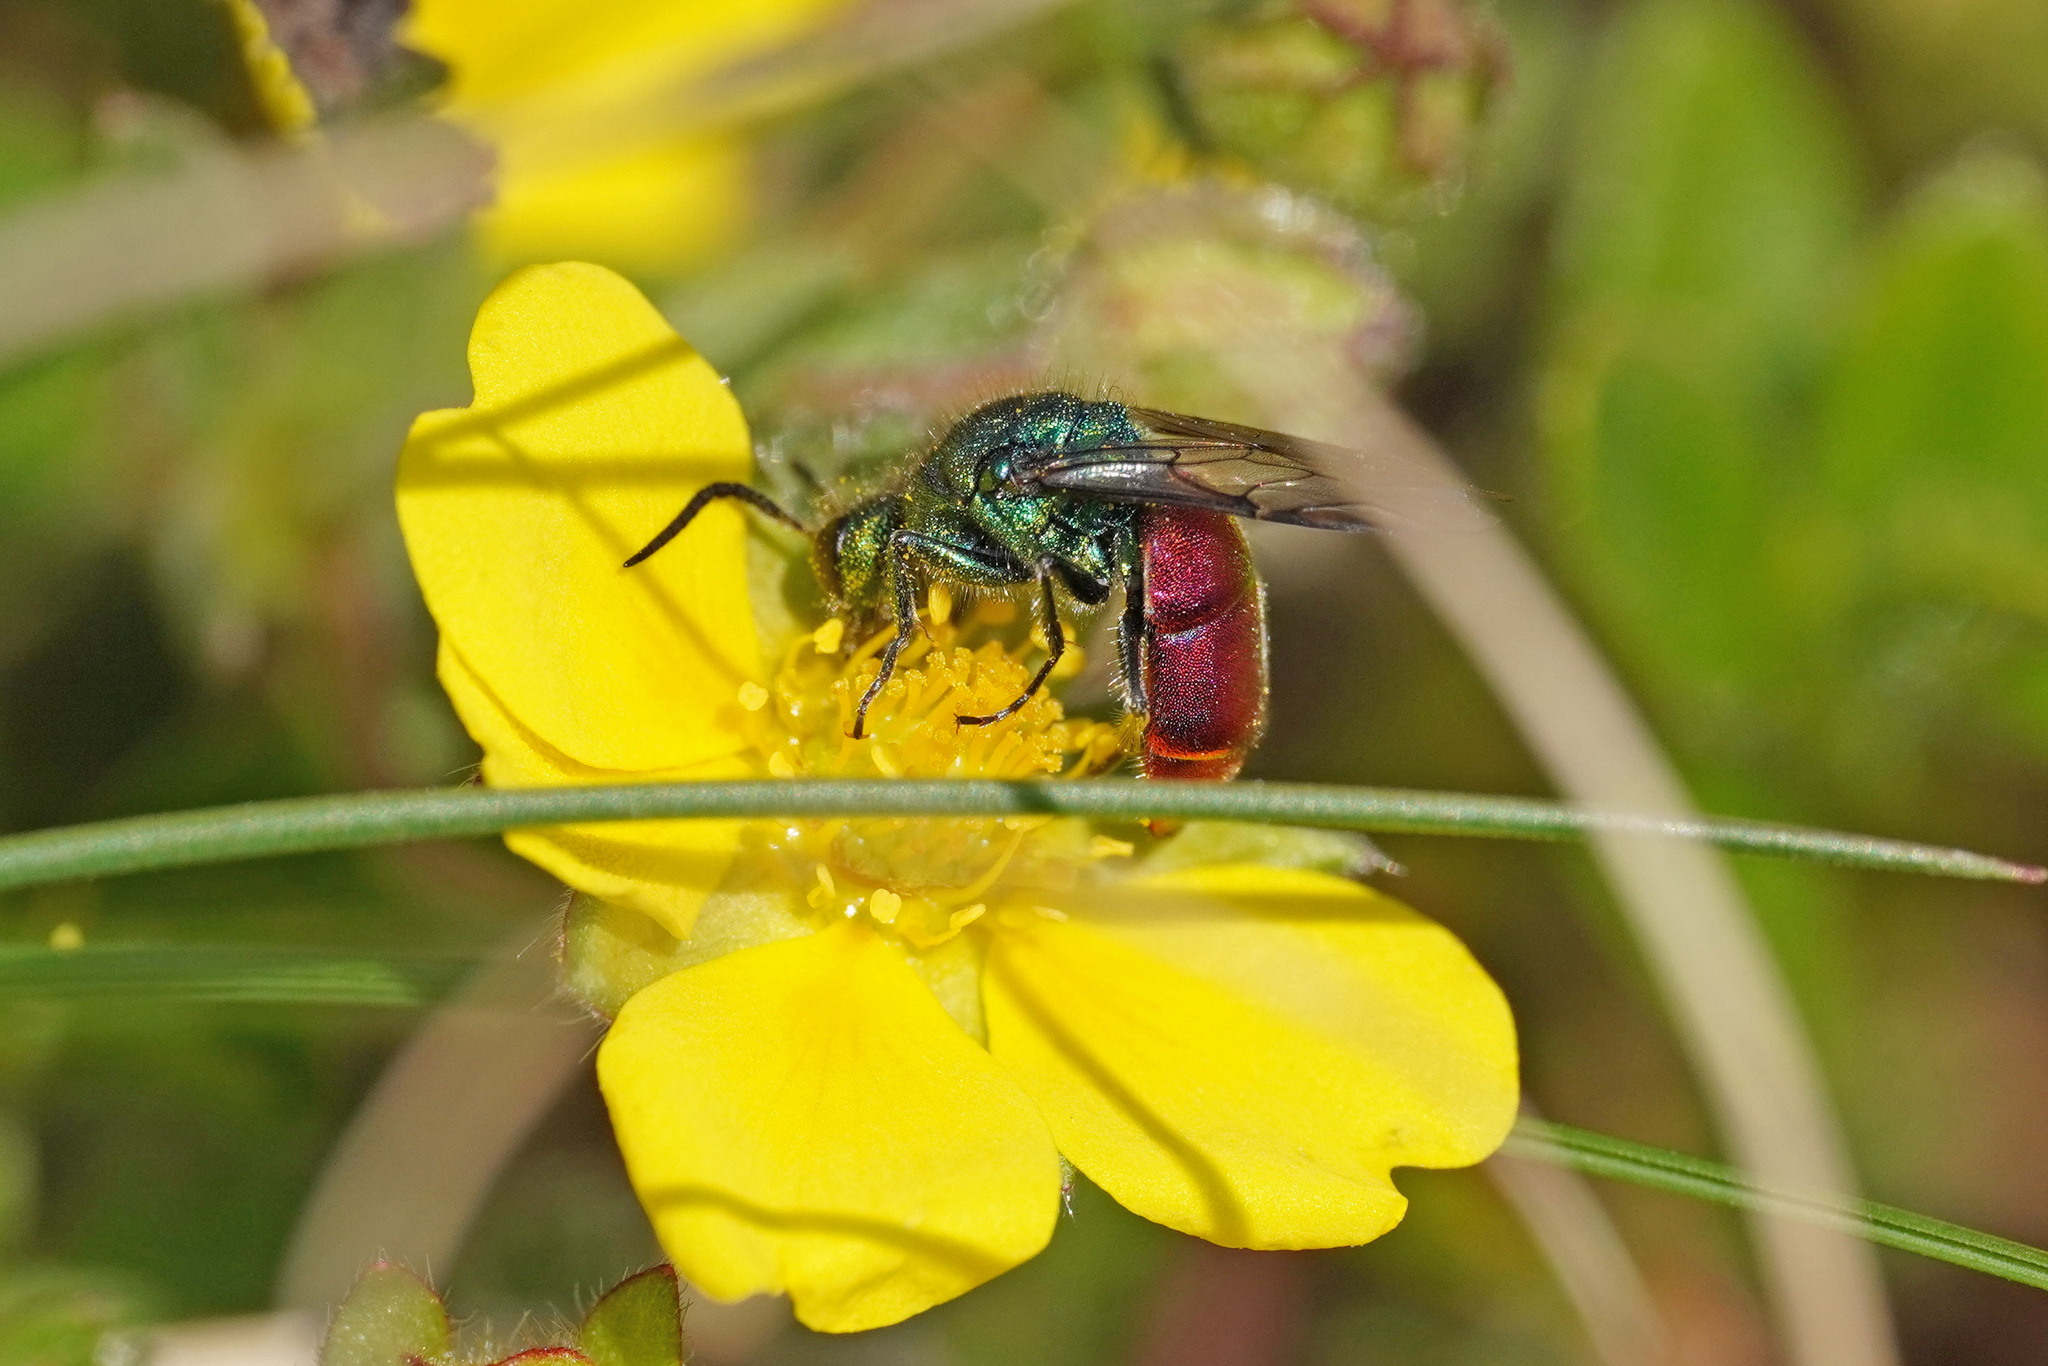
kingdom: Animalia
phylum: Arthropoda
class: Insecta
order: Hymenoptera
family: Chrysididae
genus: Chrysura
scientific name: Chrysura trimaculata
